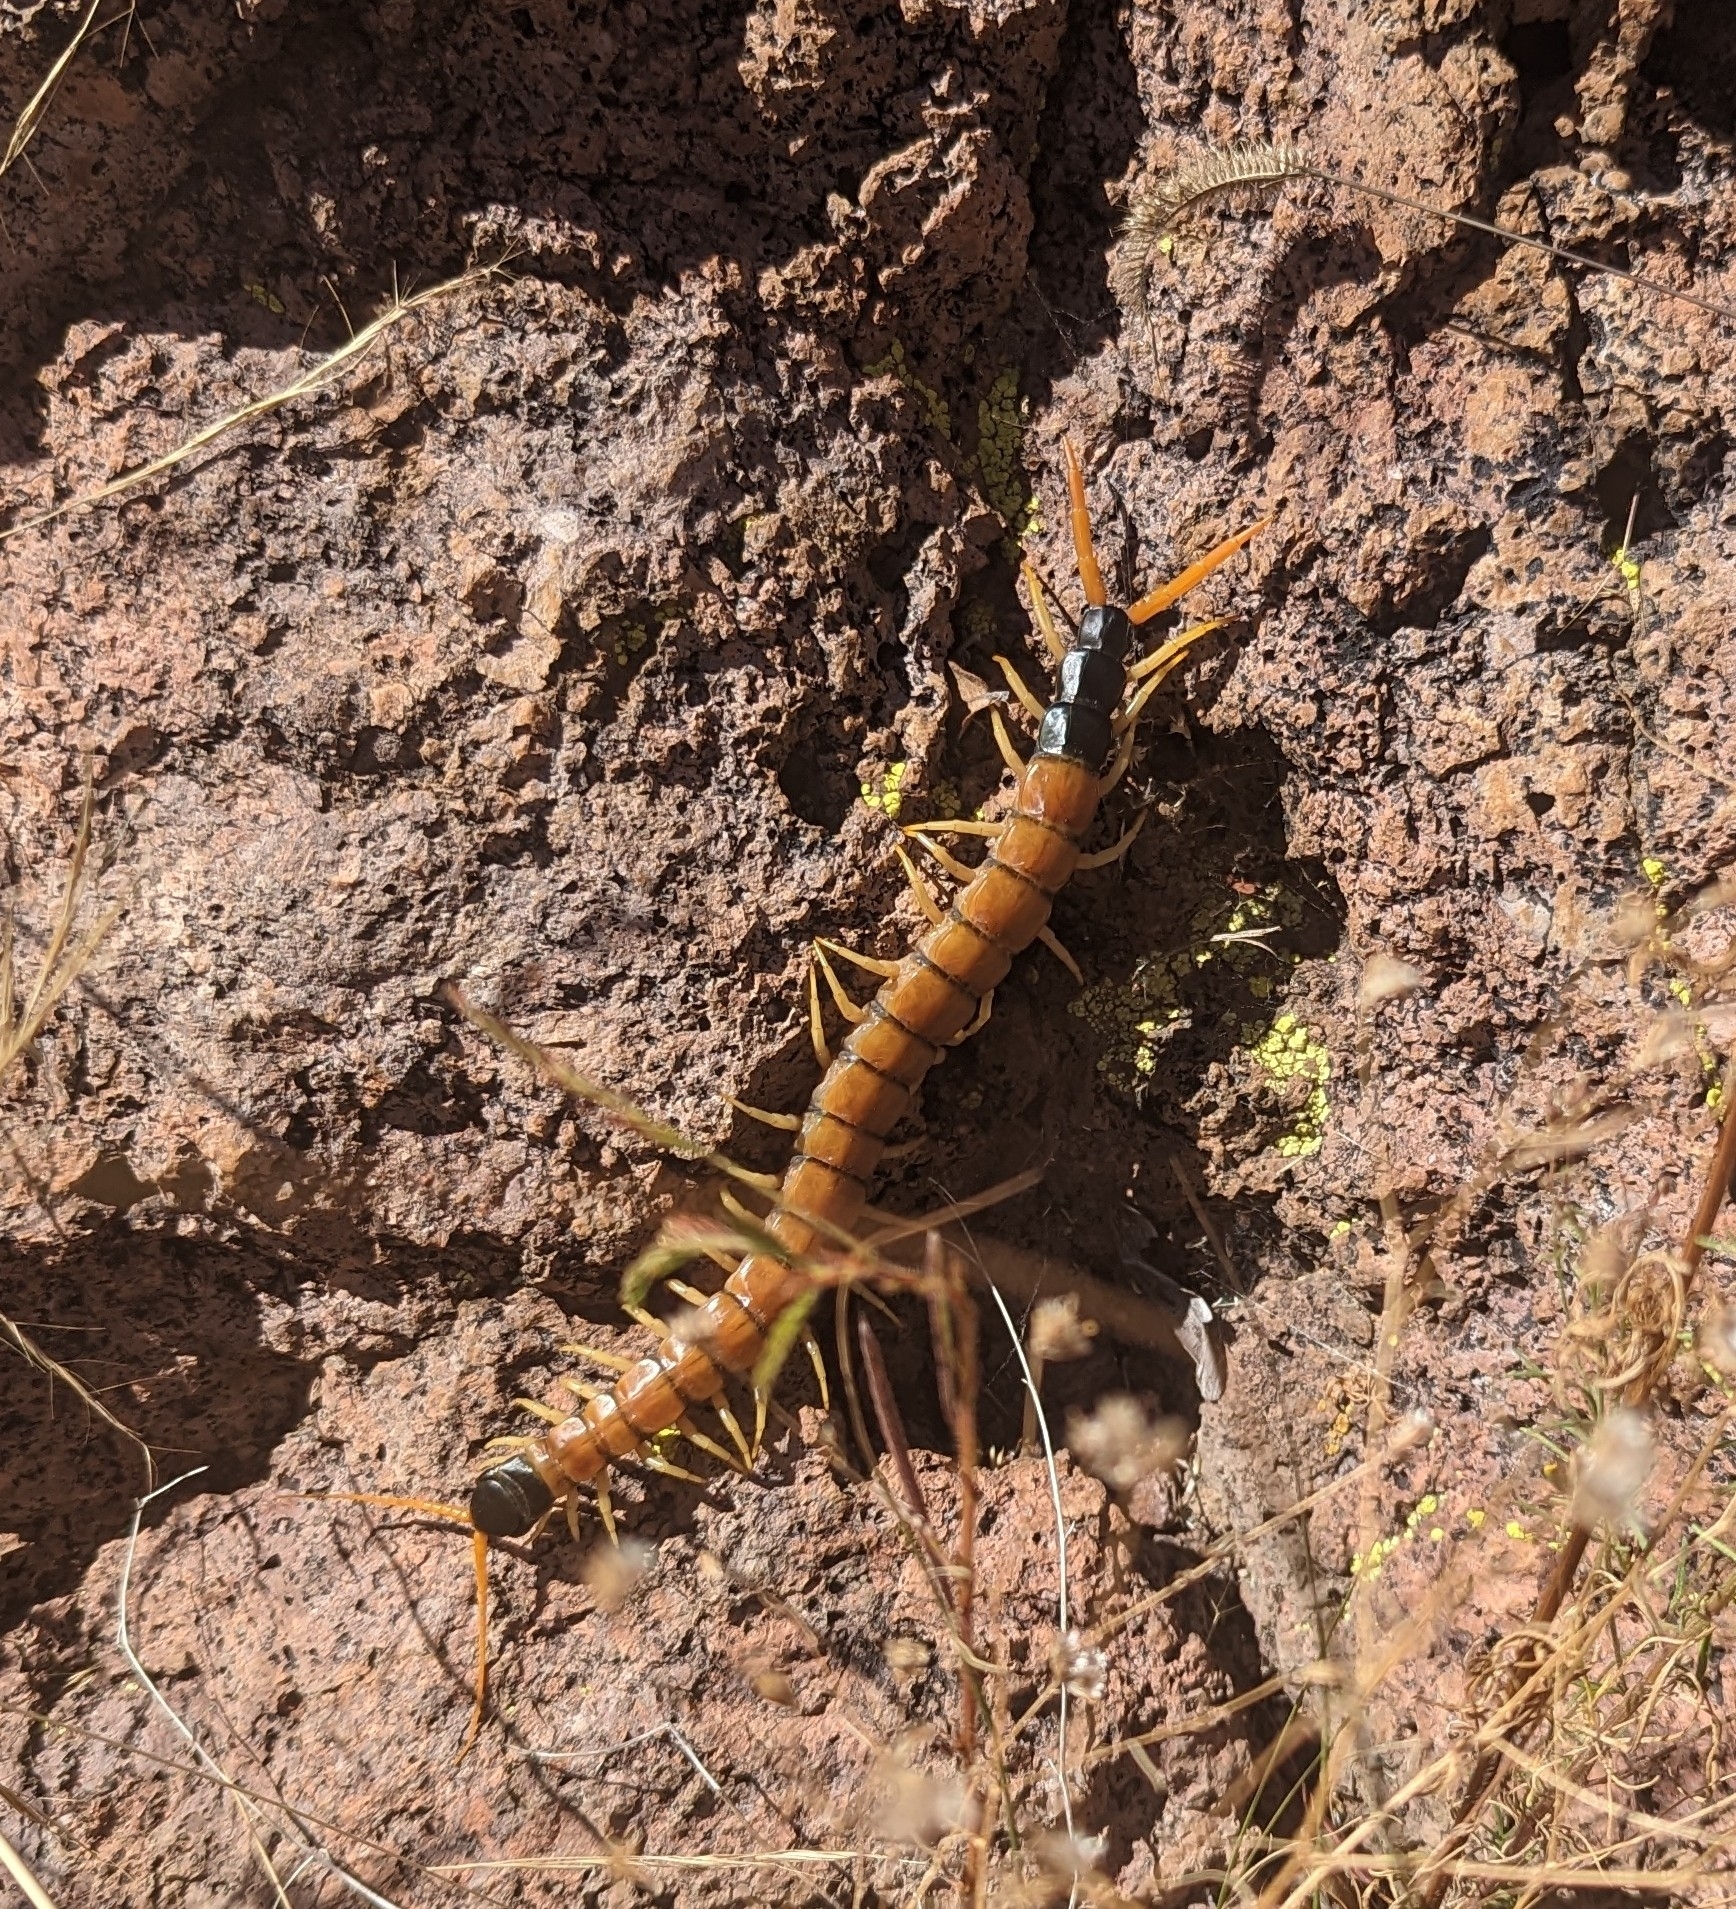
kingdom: Animalia
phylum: Arthropoda
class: Chilopoda
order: Scolopendromorpha
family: Scolopendridae
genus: Scolopendra
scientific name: Scolopendra heros
